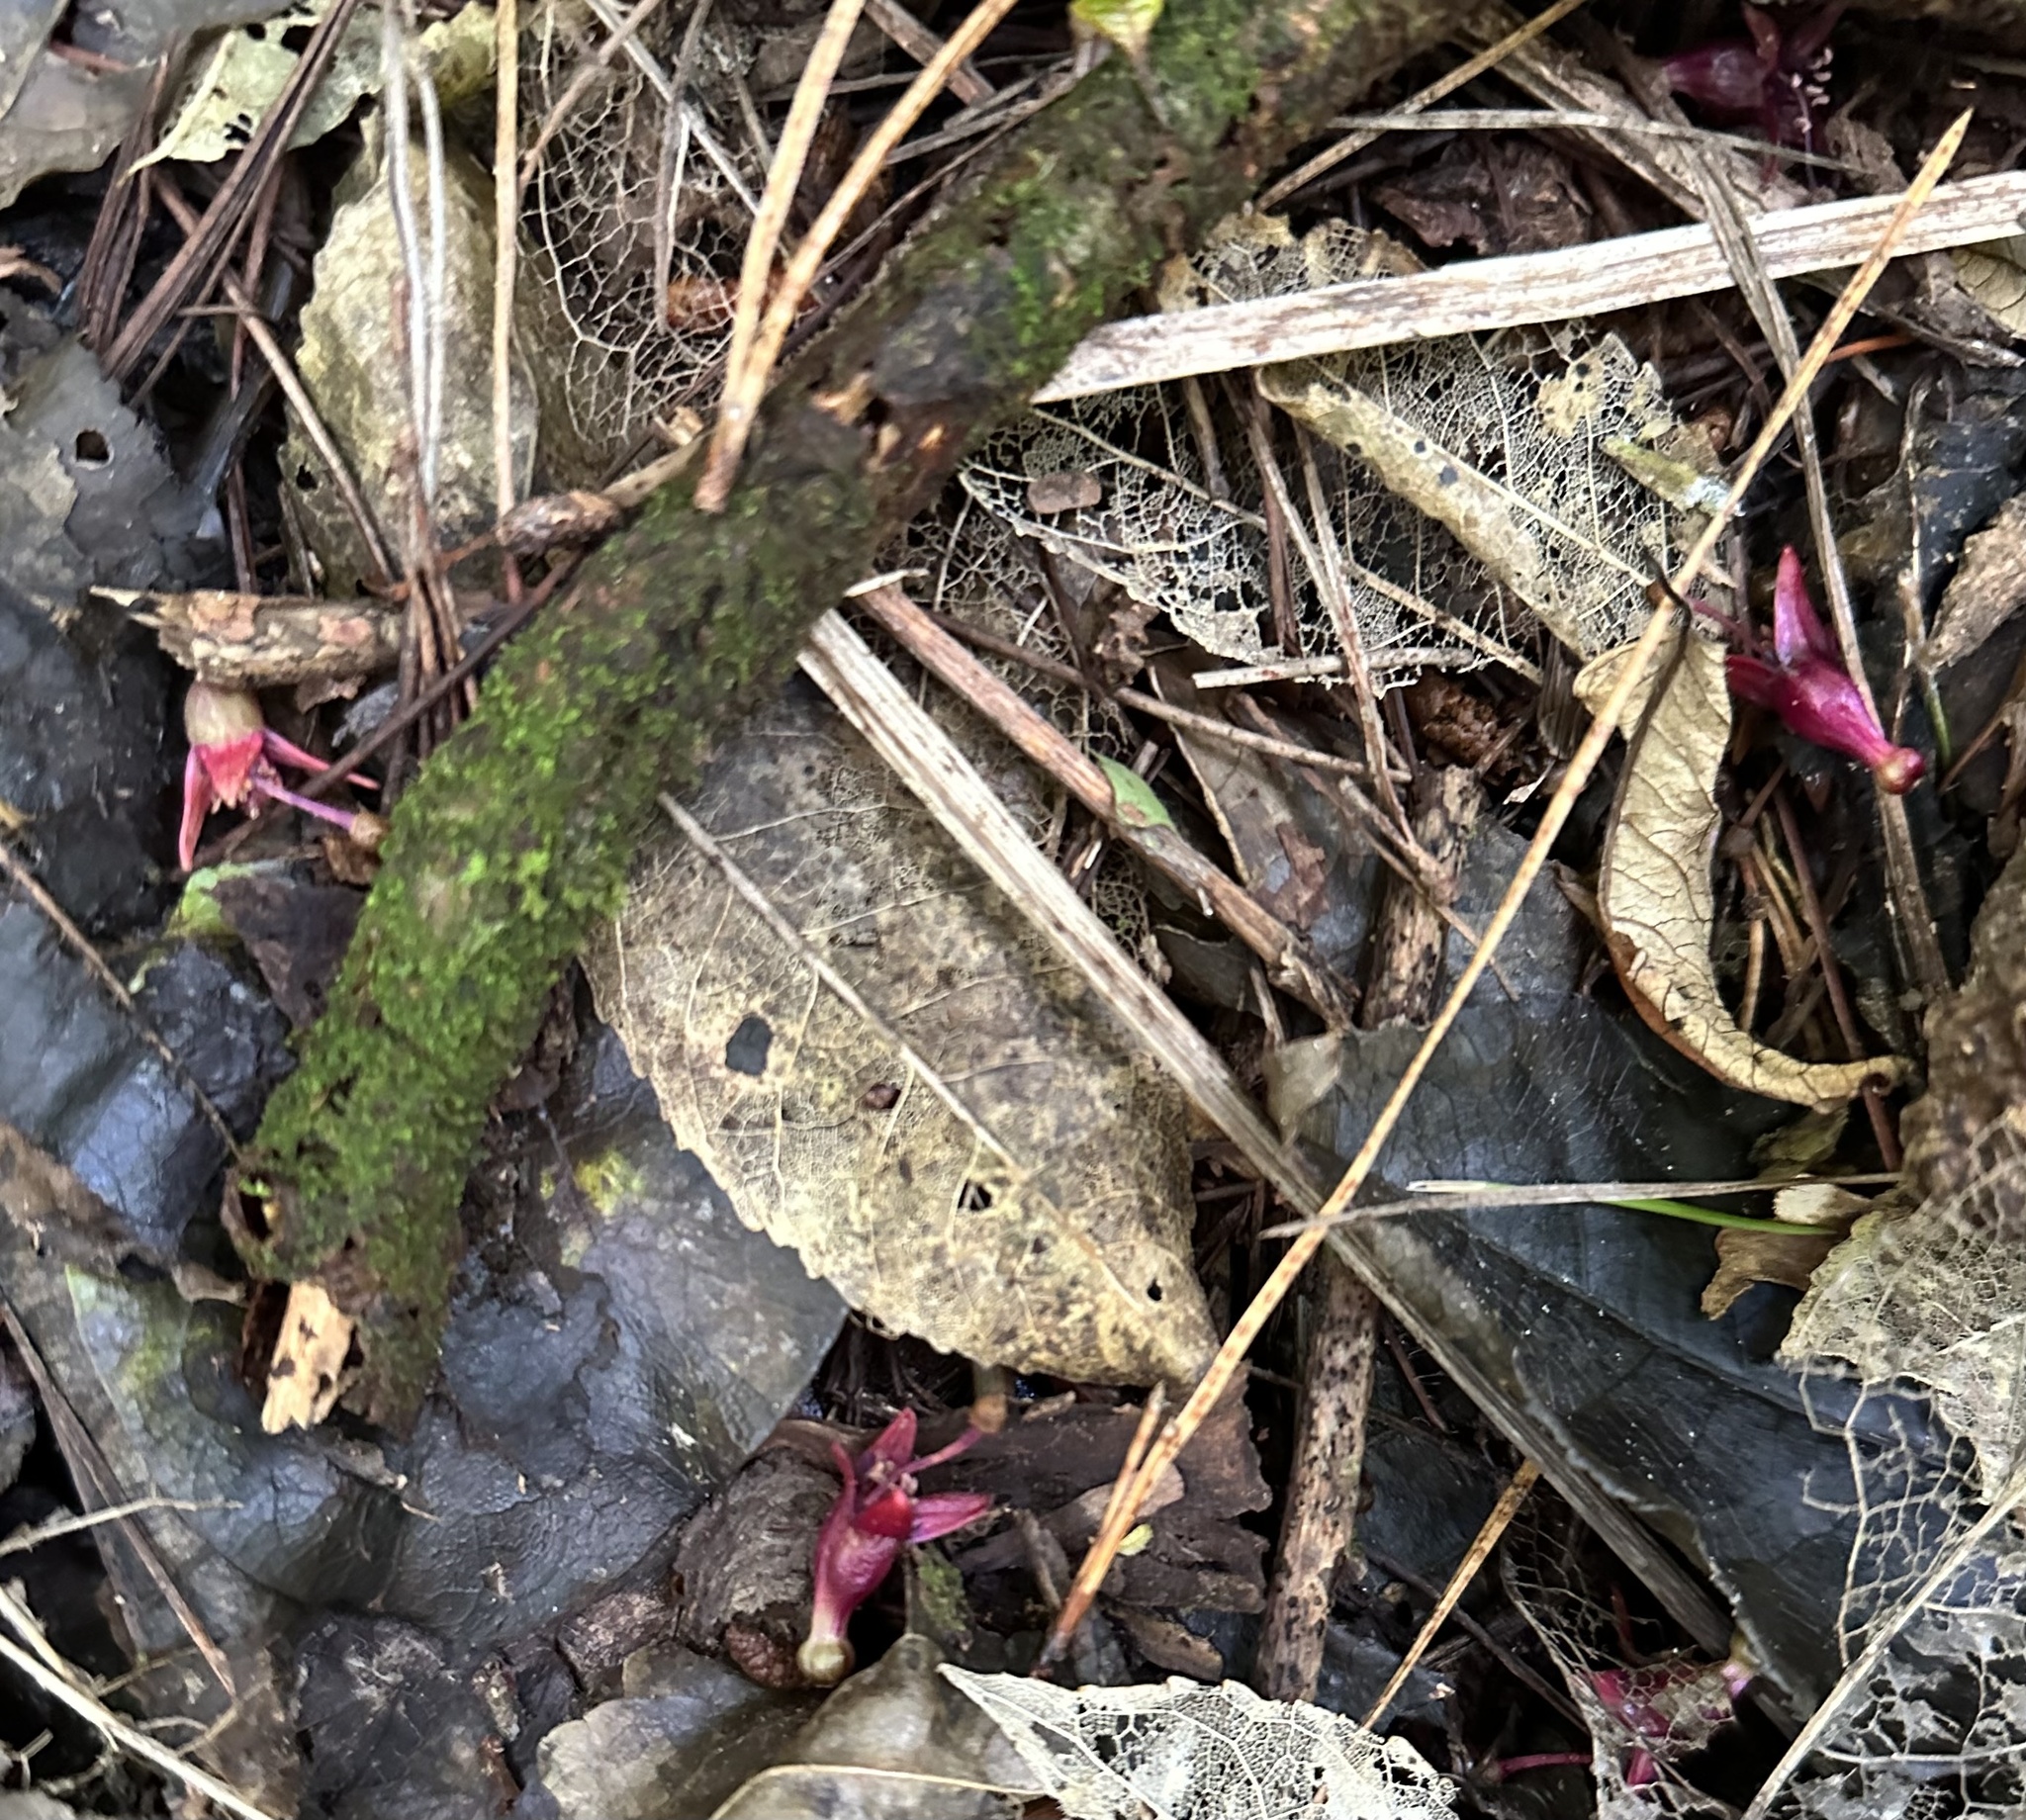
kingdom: Plantae
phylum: Tracheophyta
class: Magnoliopsida
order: Myrtales
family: Onagraceae
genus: Fuchsia
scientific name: Fuchsia excorticata
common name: Tree fuchsia
